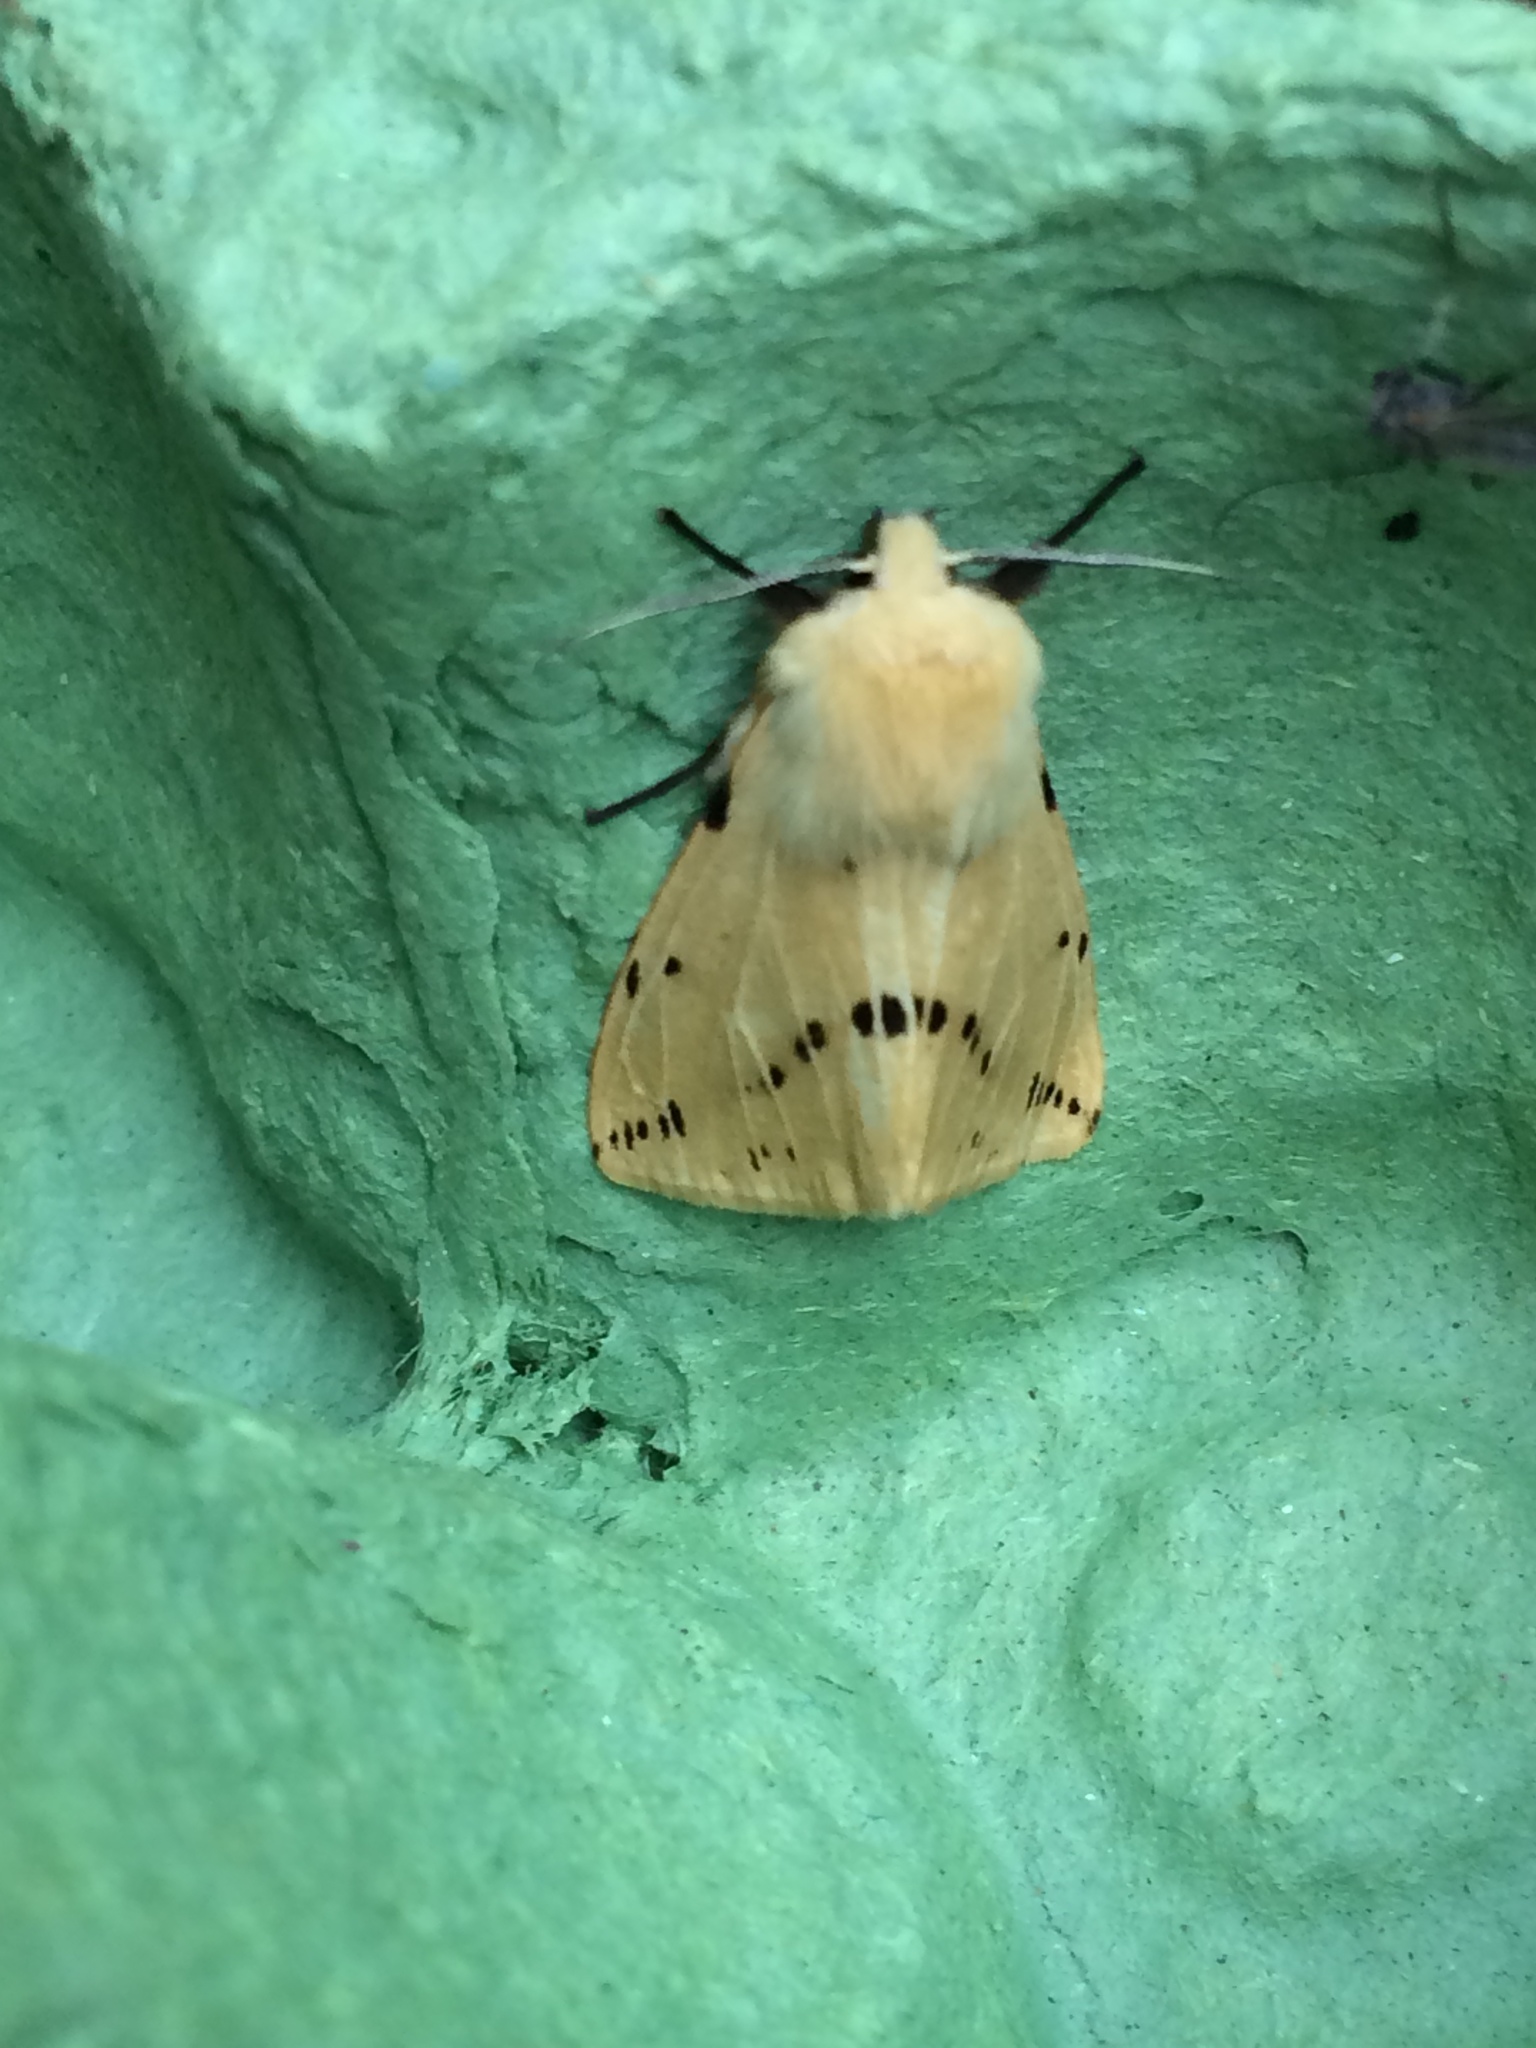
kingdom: Animalia
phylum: Arthropoda
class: Insecta
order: Lepidoptera
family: Erebidae
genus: Spilarctia
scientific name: Spilarctia lutea
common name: Buff ermine
